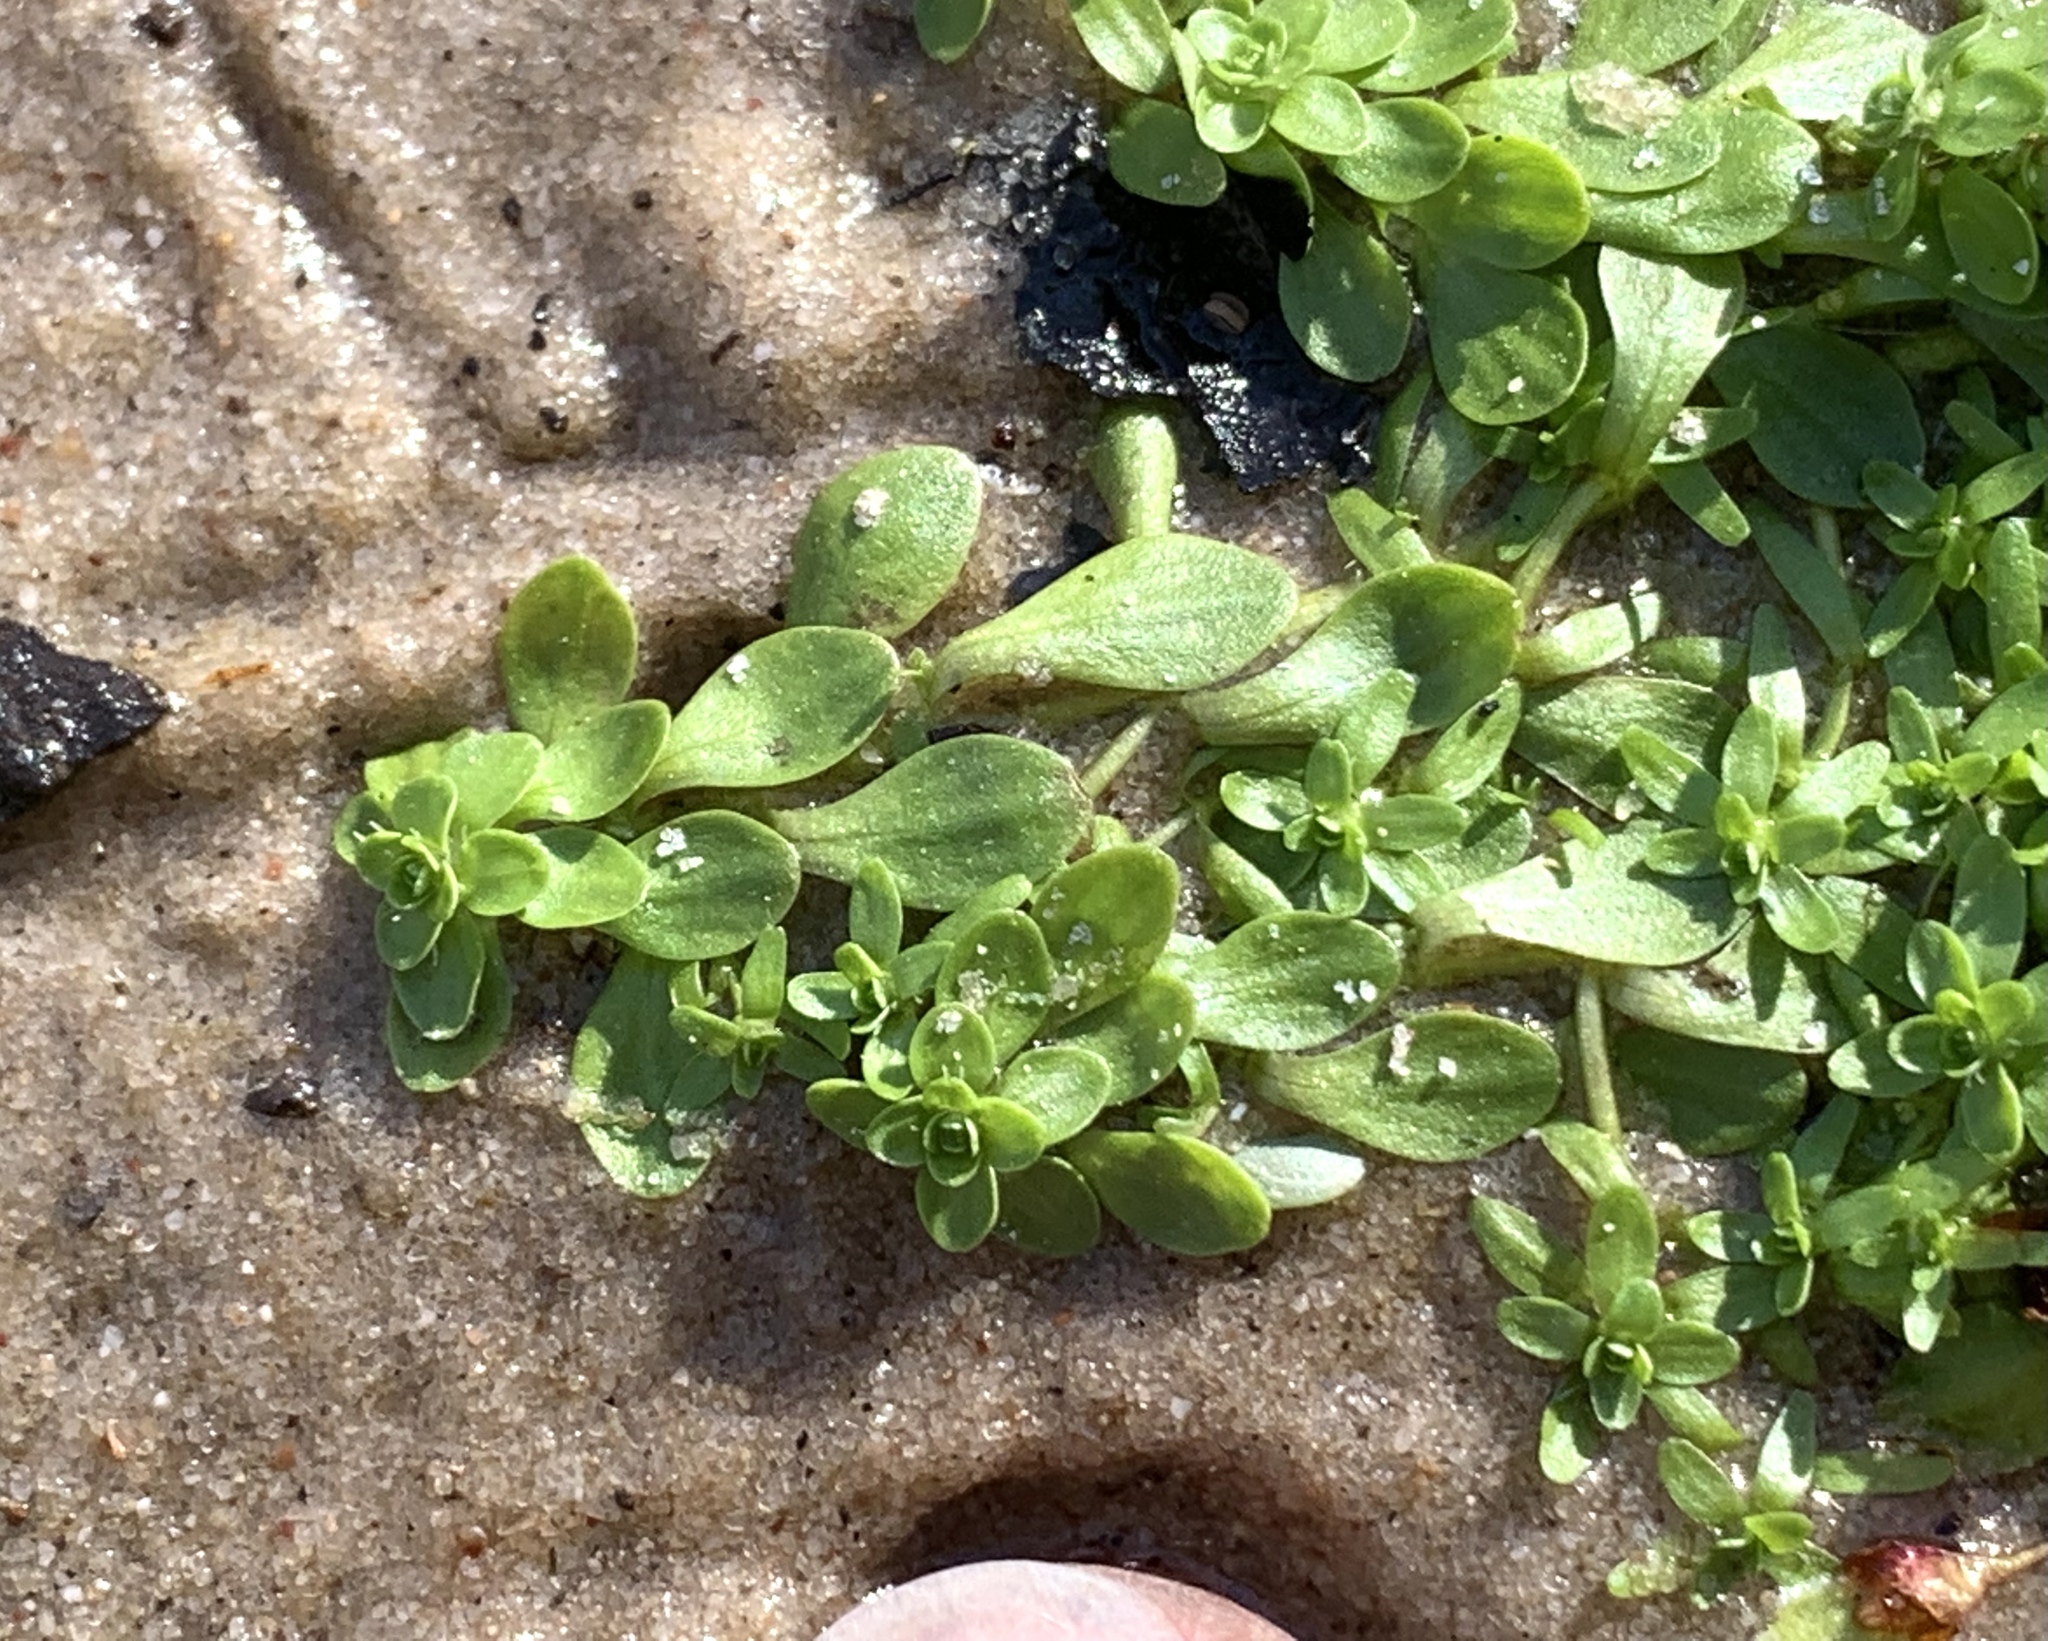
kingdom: Plantae
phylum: Tracheophyta
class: Magnoliopsida
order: Lamiales
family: Plantaginaceae
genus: Callitriche
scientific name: Callitriche heterophylla
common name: Two-headed water-starwort
